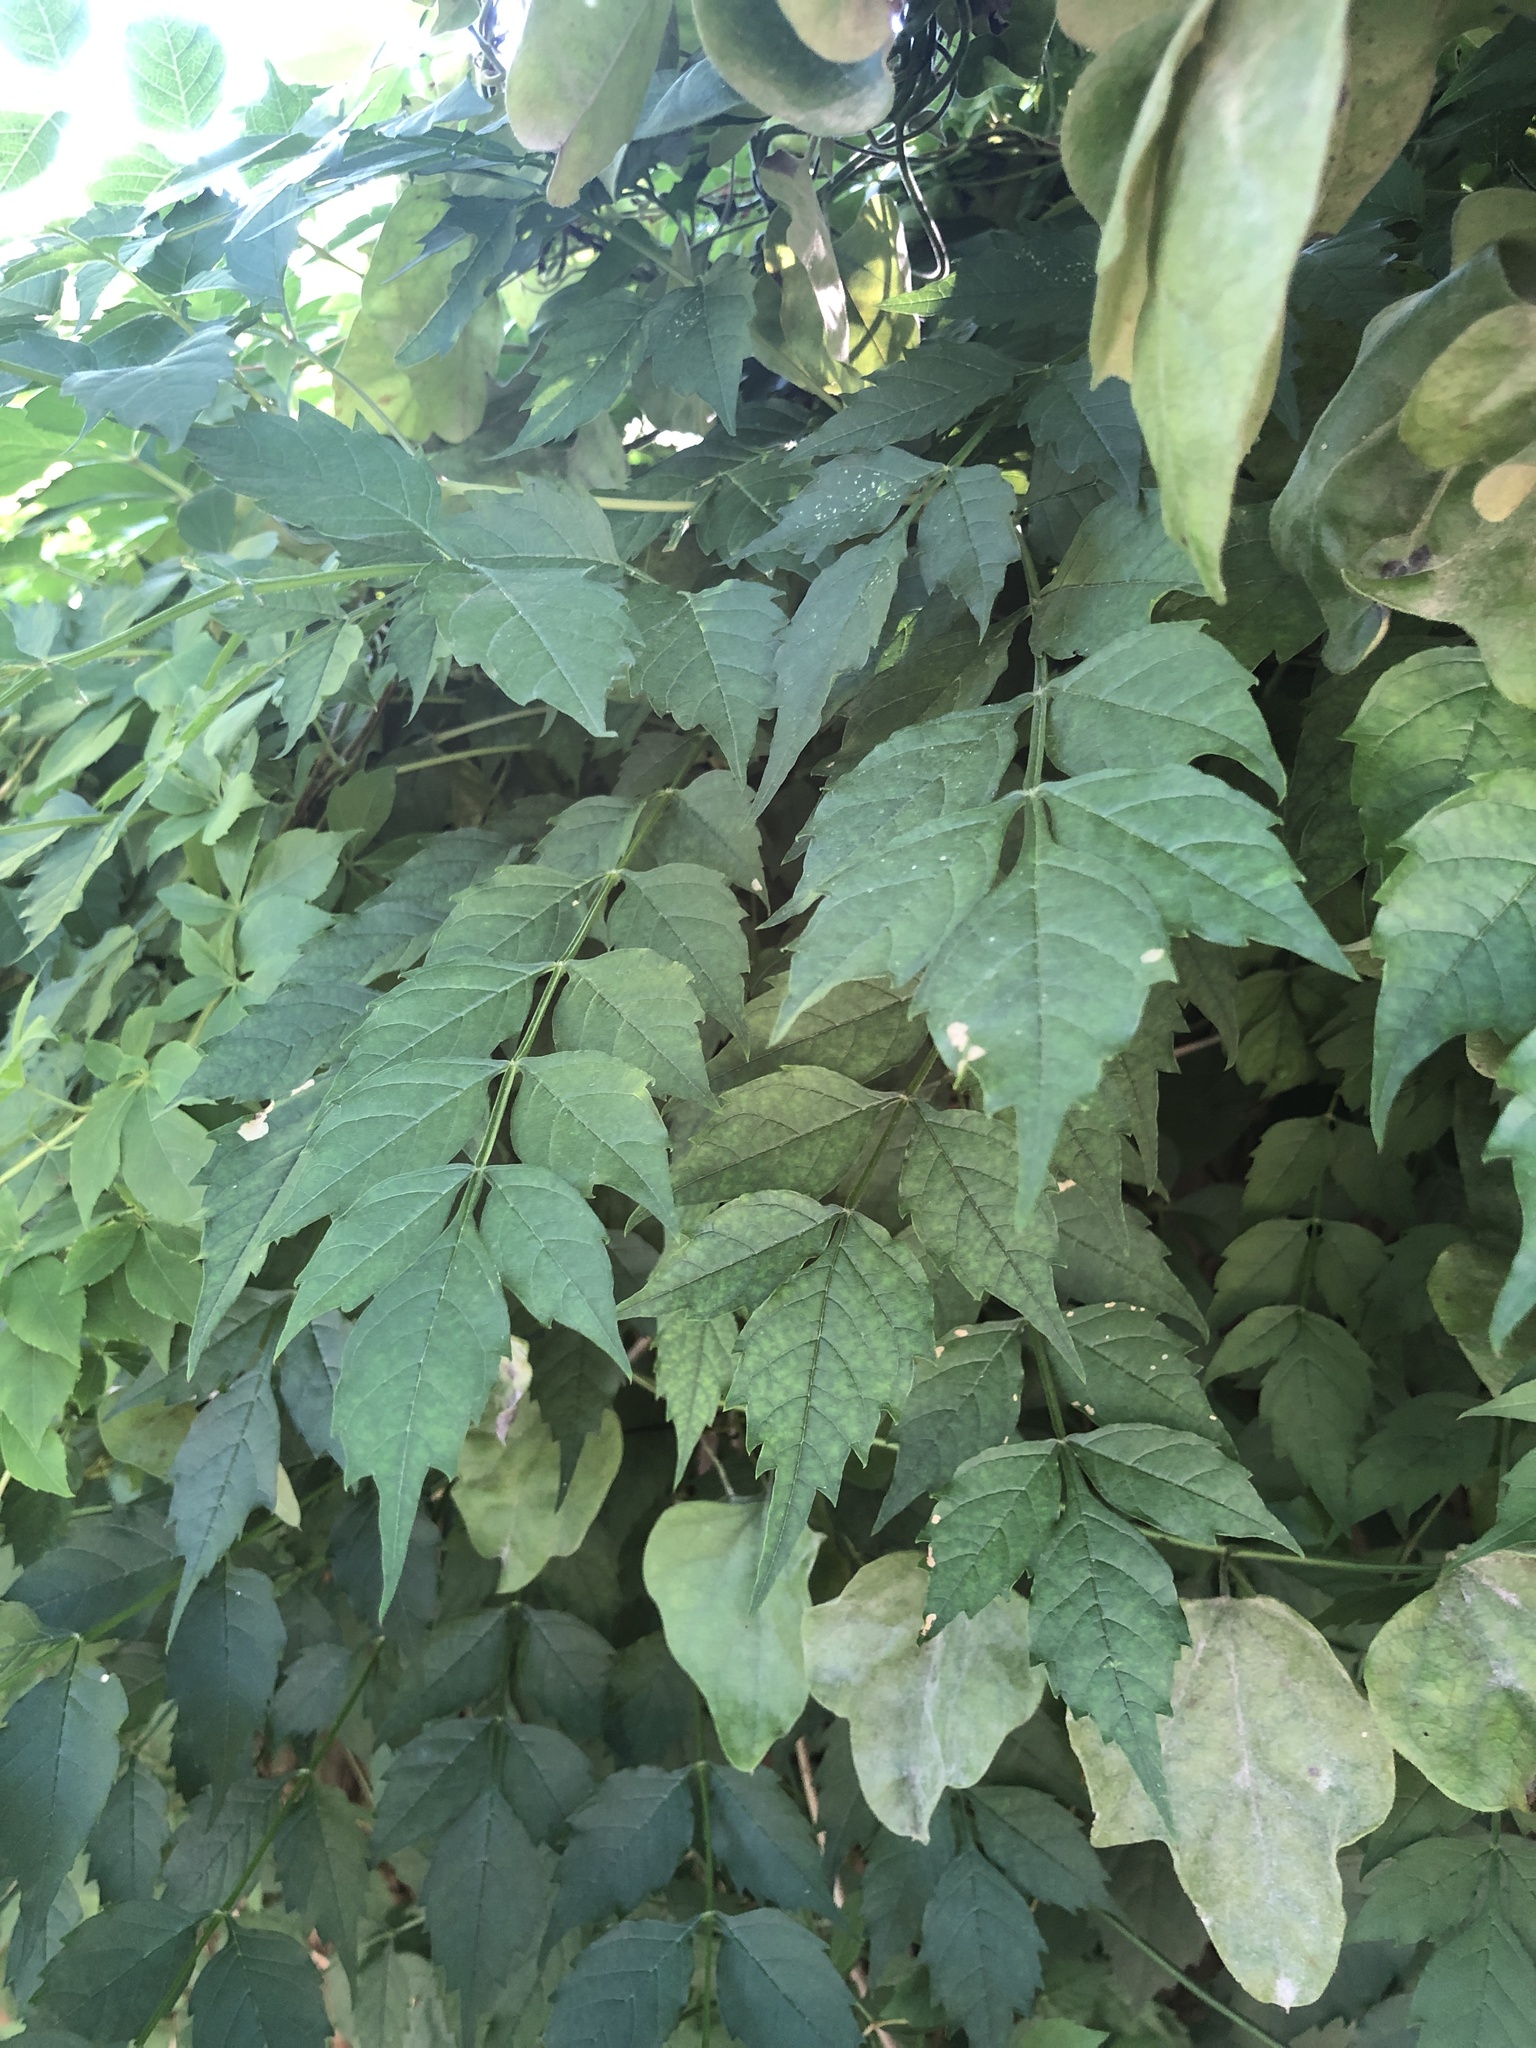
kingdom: Plantae
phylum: Tracheophyta
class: Magnoliopsida
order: Lamiales
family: Bignoniaceae
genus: Campsis
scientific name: Campsis radicans
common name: Trumpet-creeper
